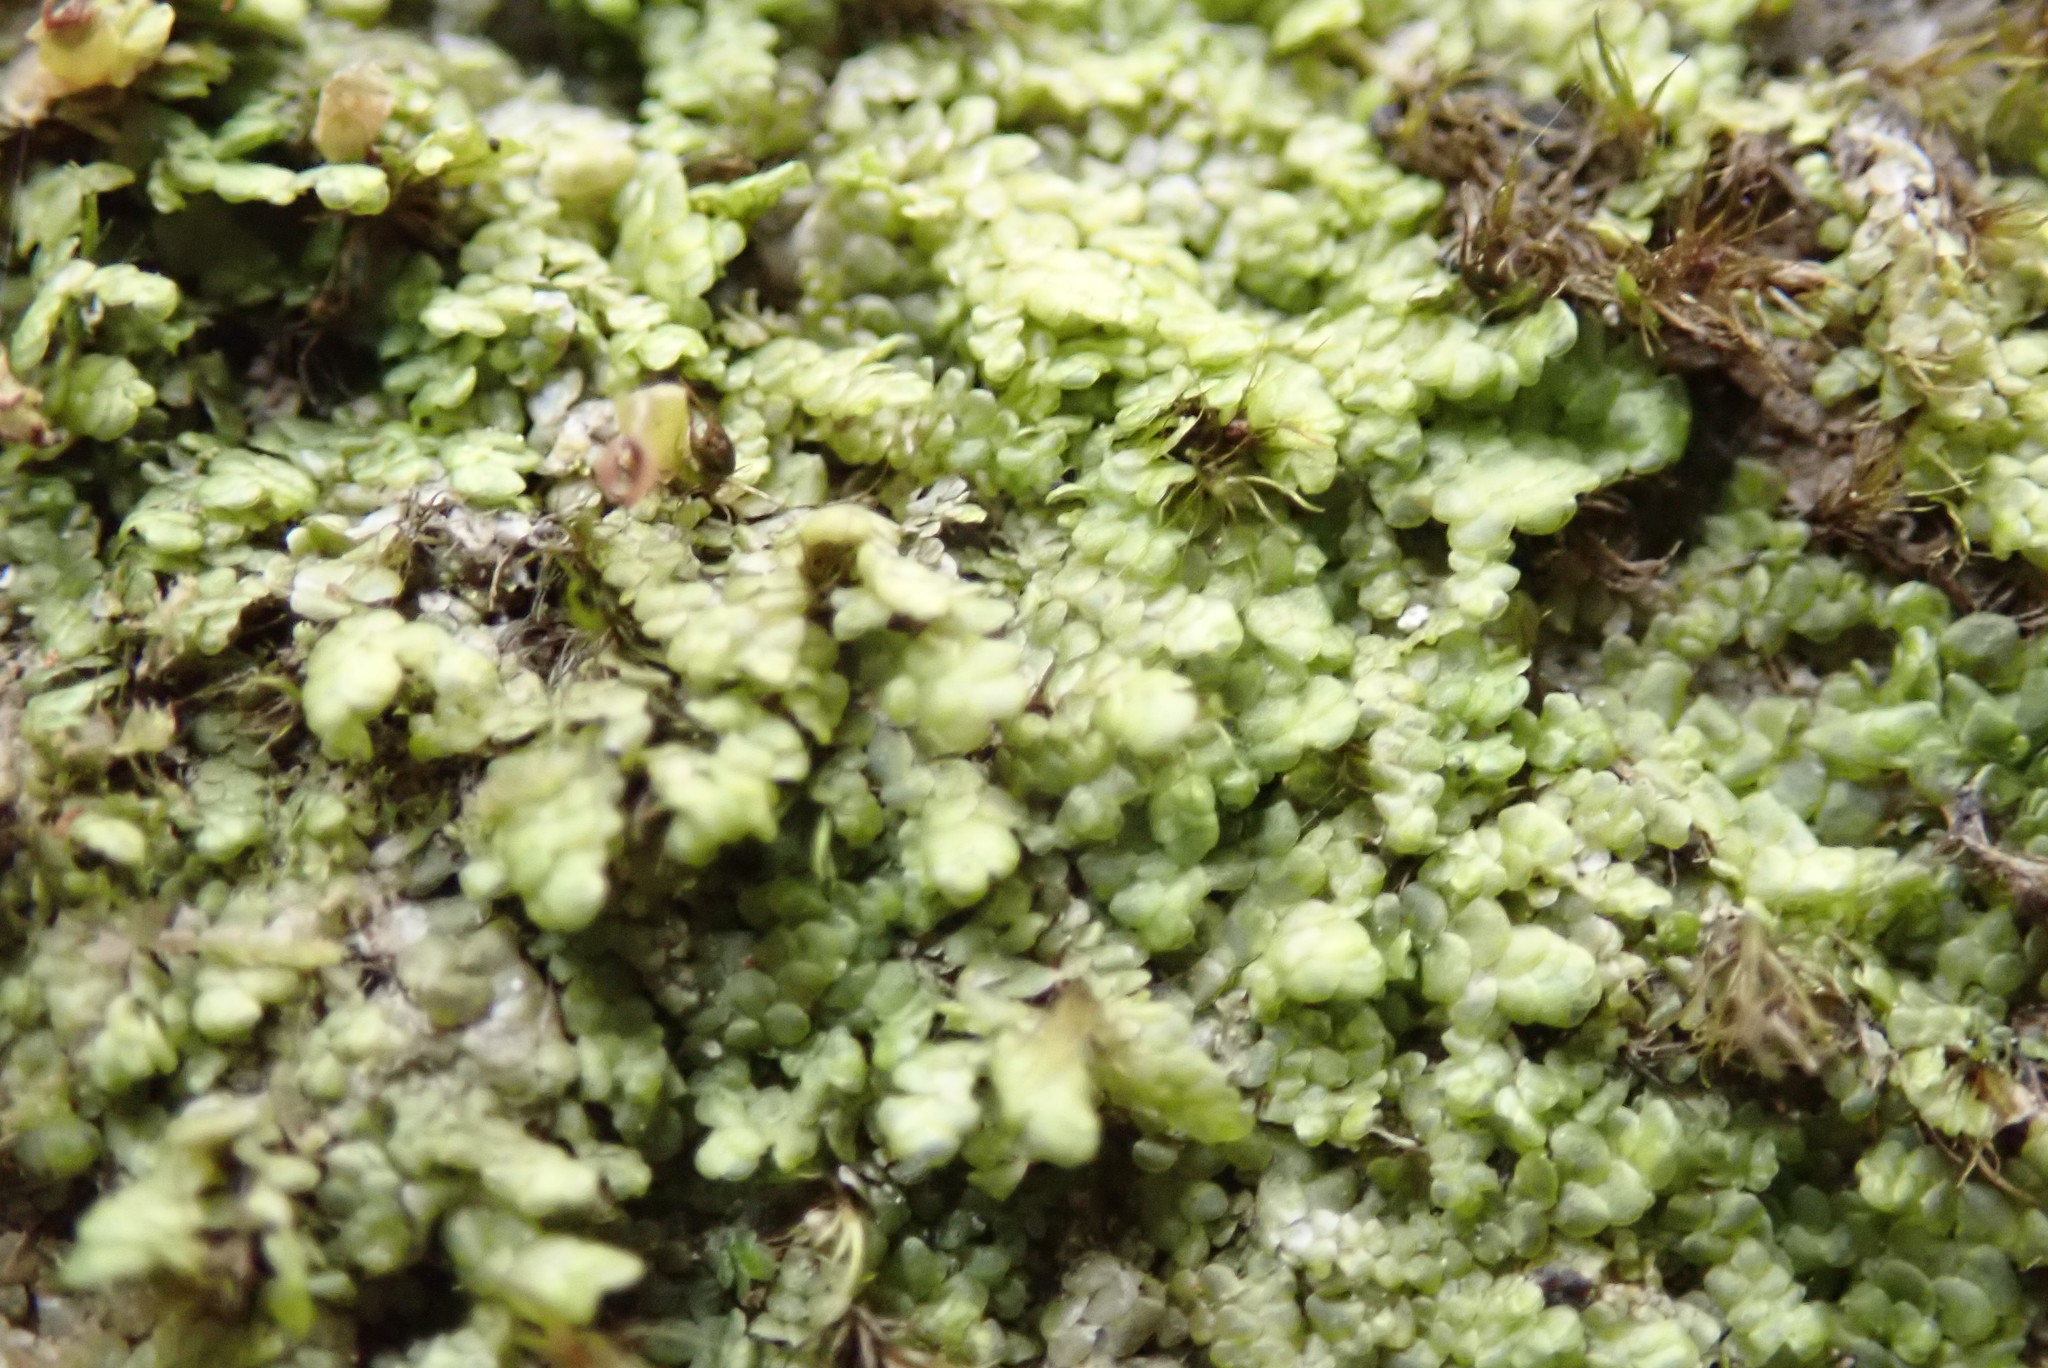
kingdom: Plantae
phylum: Marchantiophyta
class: Jungermanniopsida
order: Porellales
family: Radulaceae
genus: Radula
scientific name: Radula complanata
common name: Flat-leaved scalewort
